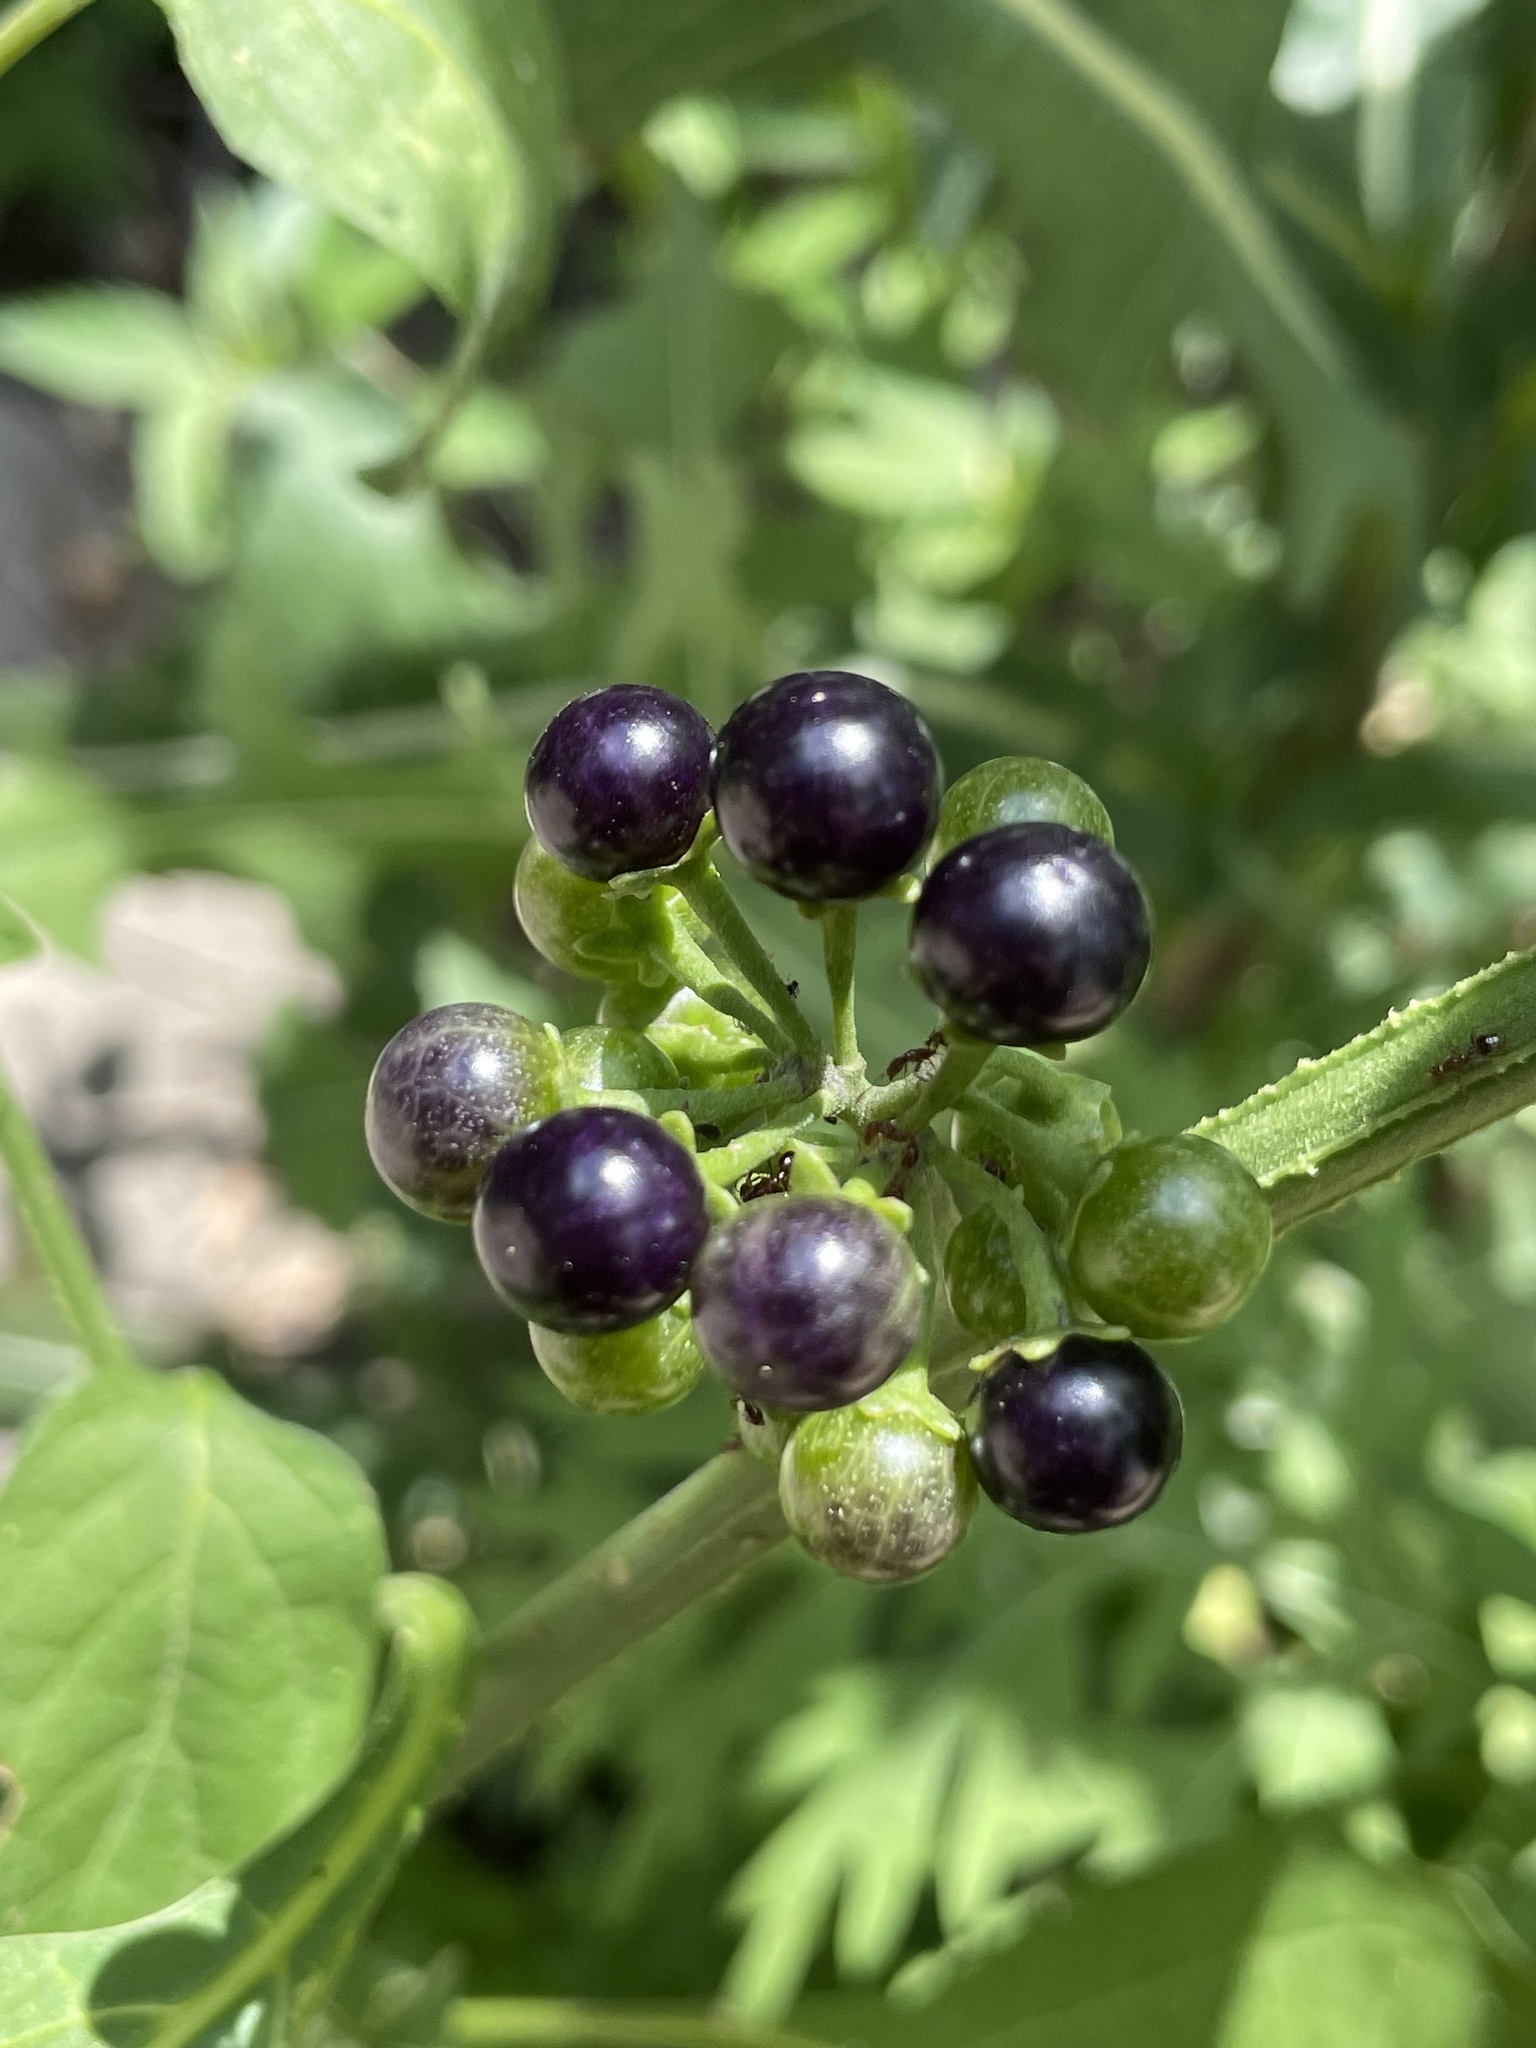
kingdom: Plantae
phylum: Tracheophyta
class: Magnoliopsida
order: Solanales
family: Solanaceae
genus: Solanum
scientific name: Solanum americanum
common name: American black nightshade
